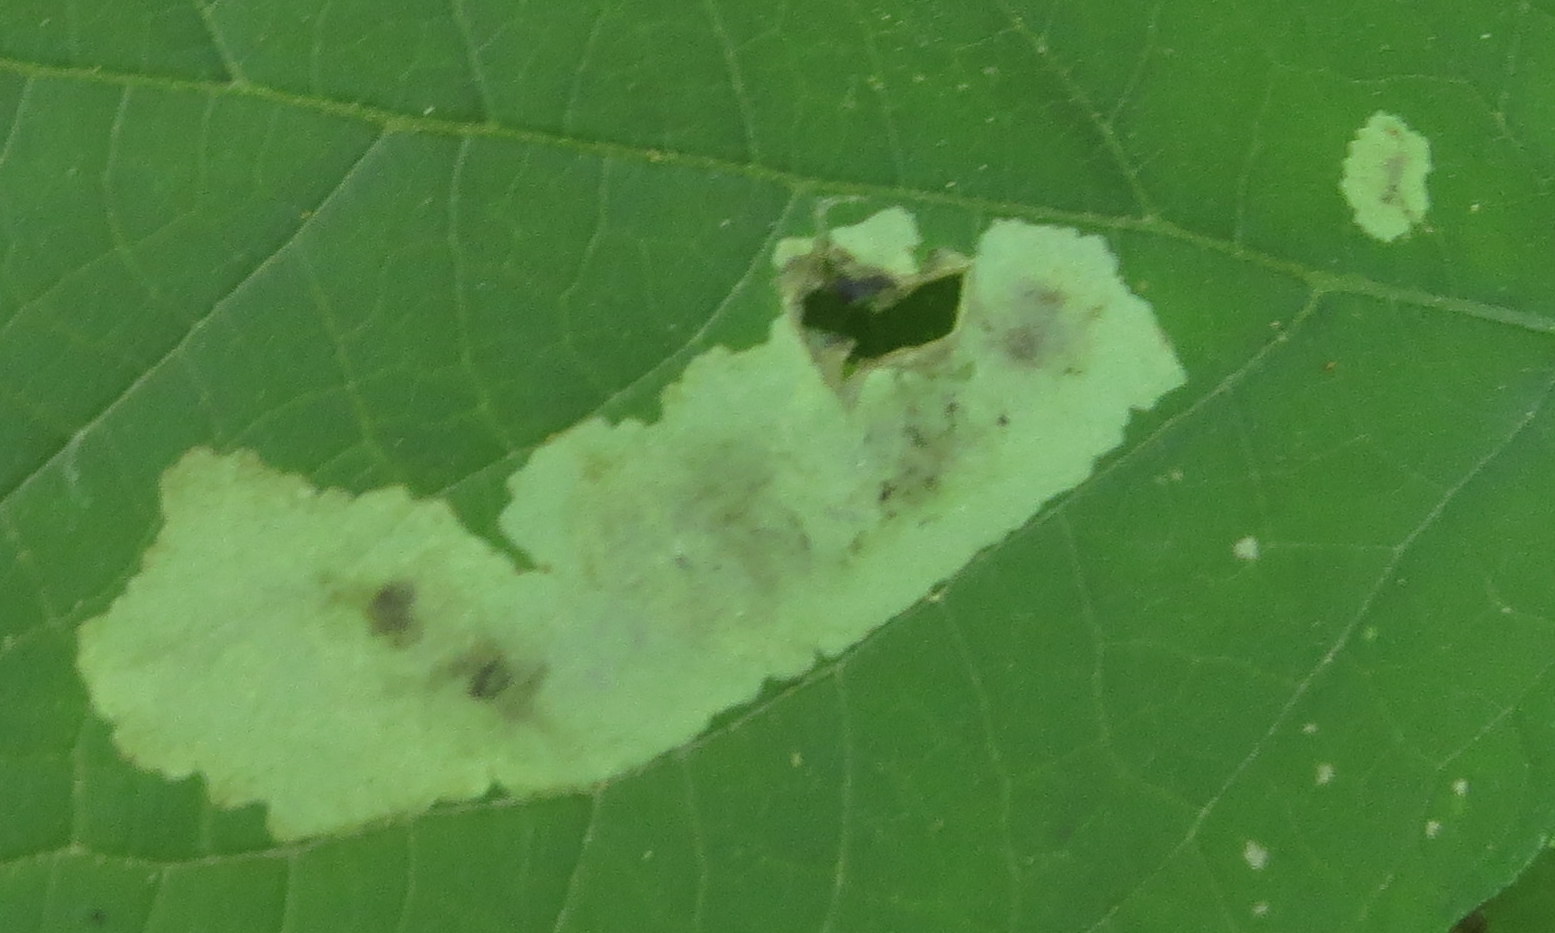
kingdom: Animalia
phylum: Arthropoda
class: Insecta
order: Diptera
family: Agromyzidae
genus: Calycomyza
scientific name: Calycomyza flavinotum
